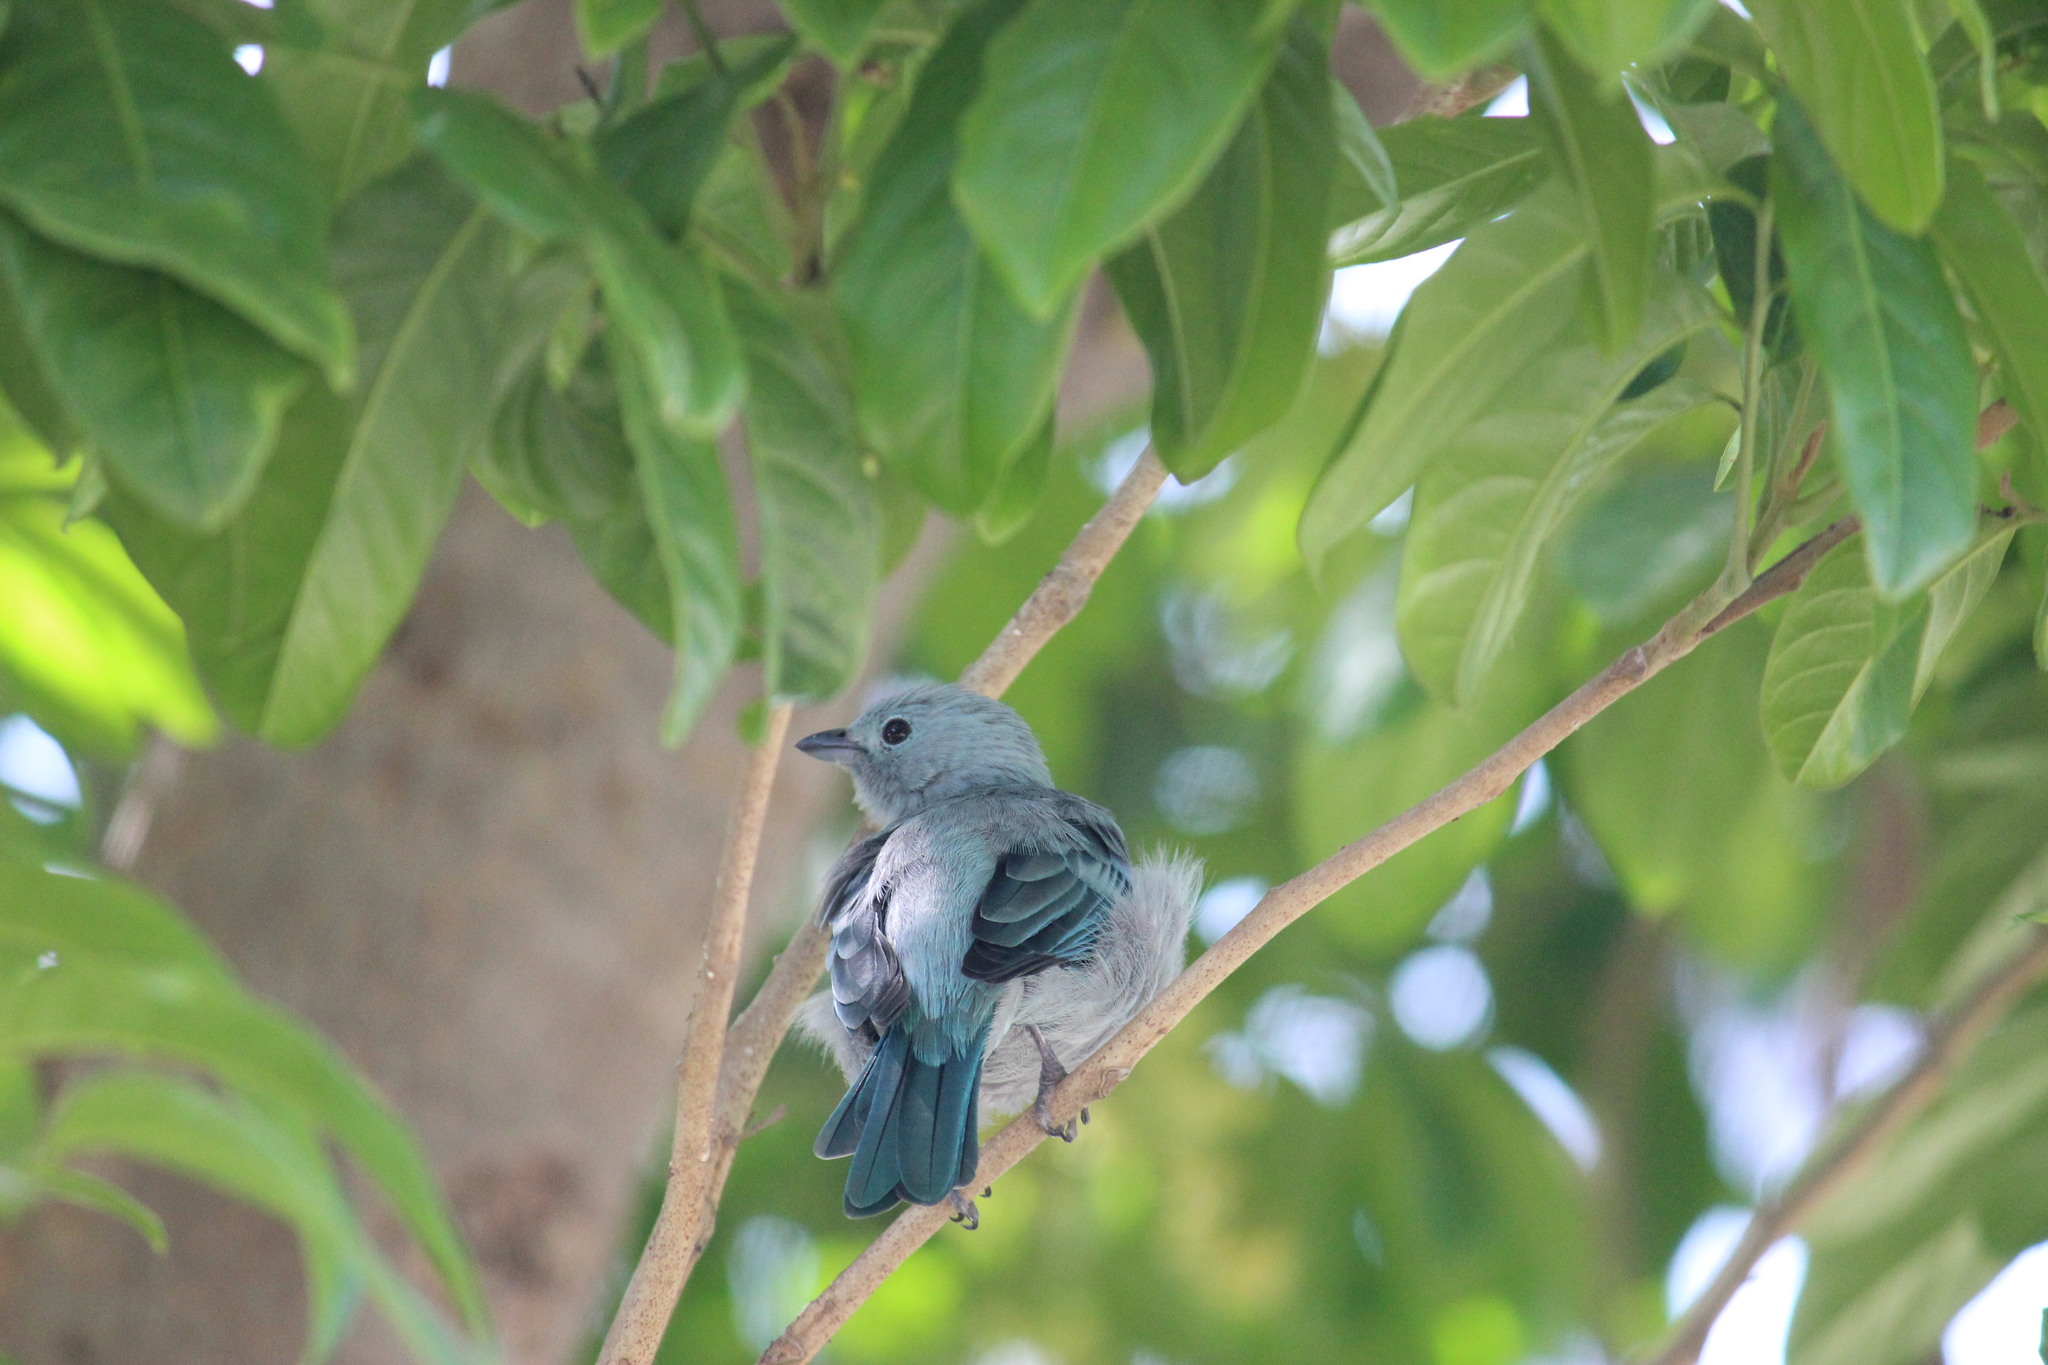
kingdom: Animalia
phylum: Chordata
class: Aves
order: Passeriformes
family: Thraupidae
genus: Thraupis
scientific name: Thraupis episcopus
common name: Blue-grey tanager
